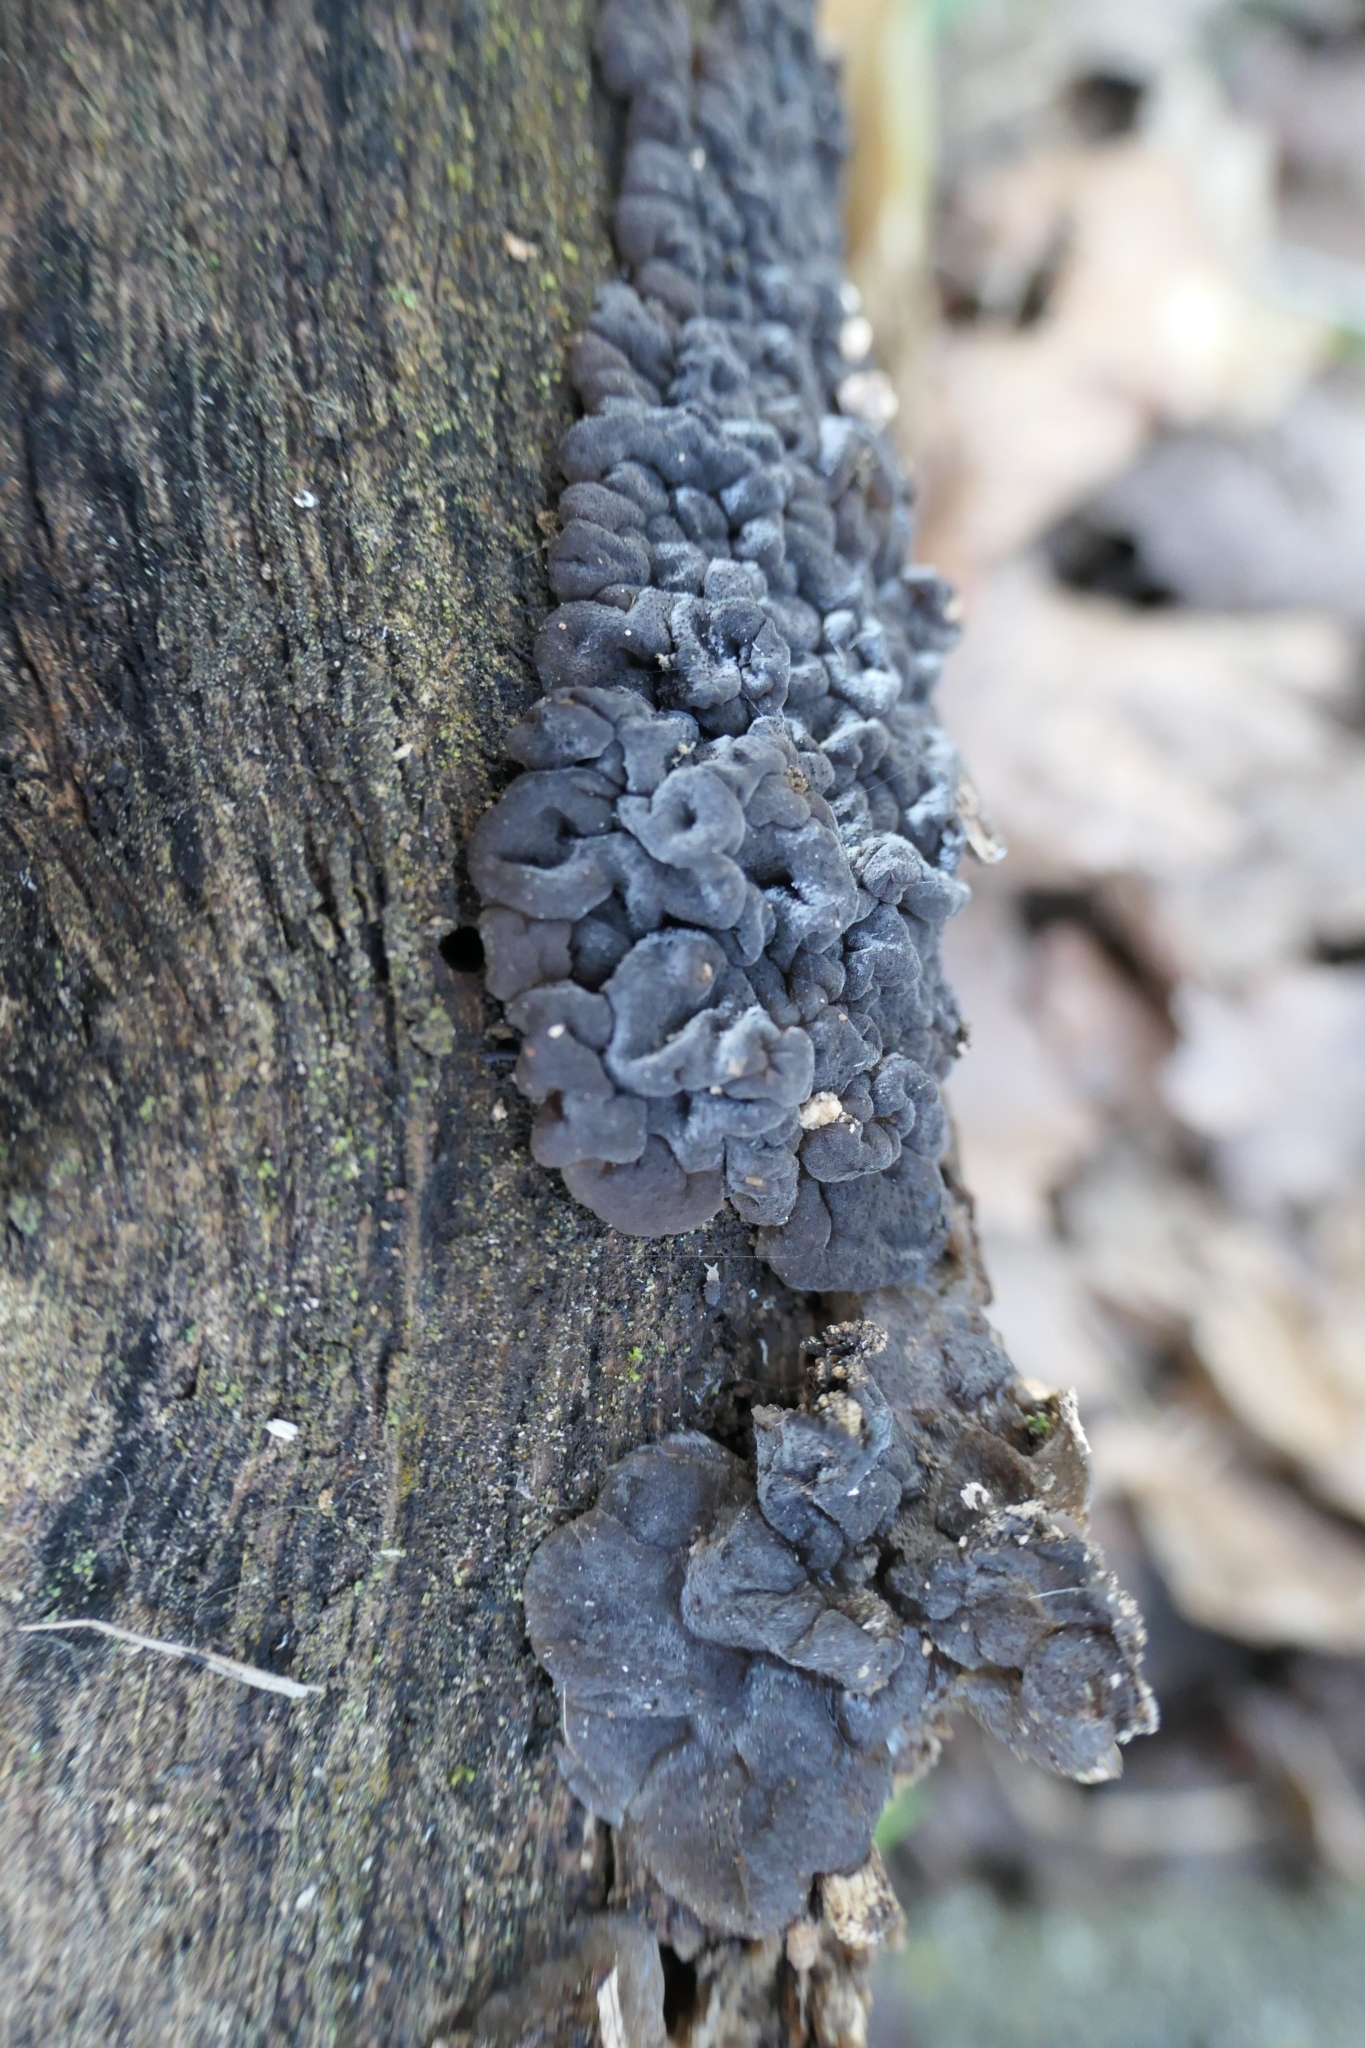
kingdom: Fungi
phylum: Basidiomycota
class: Agaricomycetes
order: Auriculariales
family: Auriculariaceae
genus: Tremellochaete
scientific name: Tremellochaete
